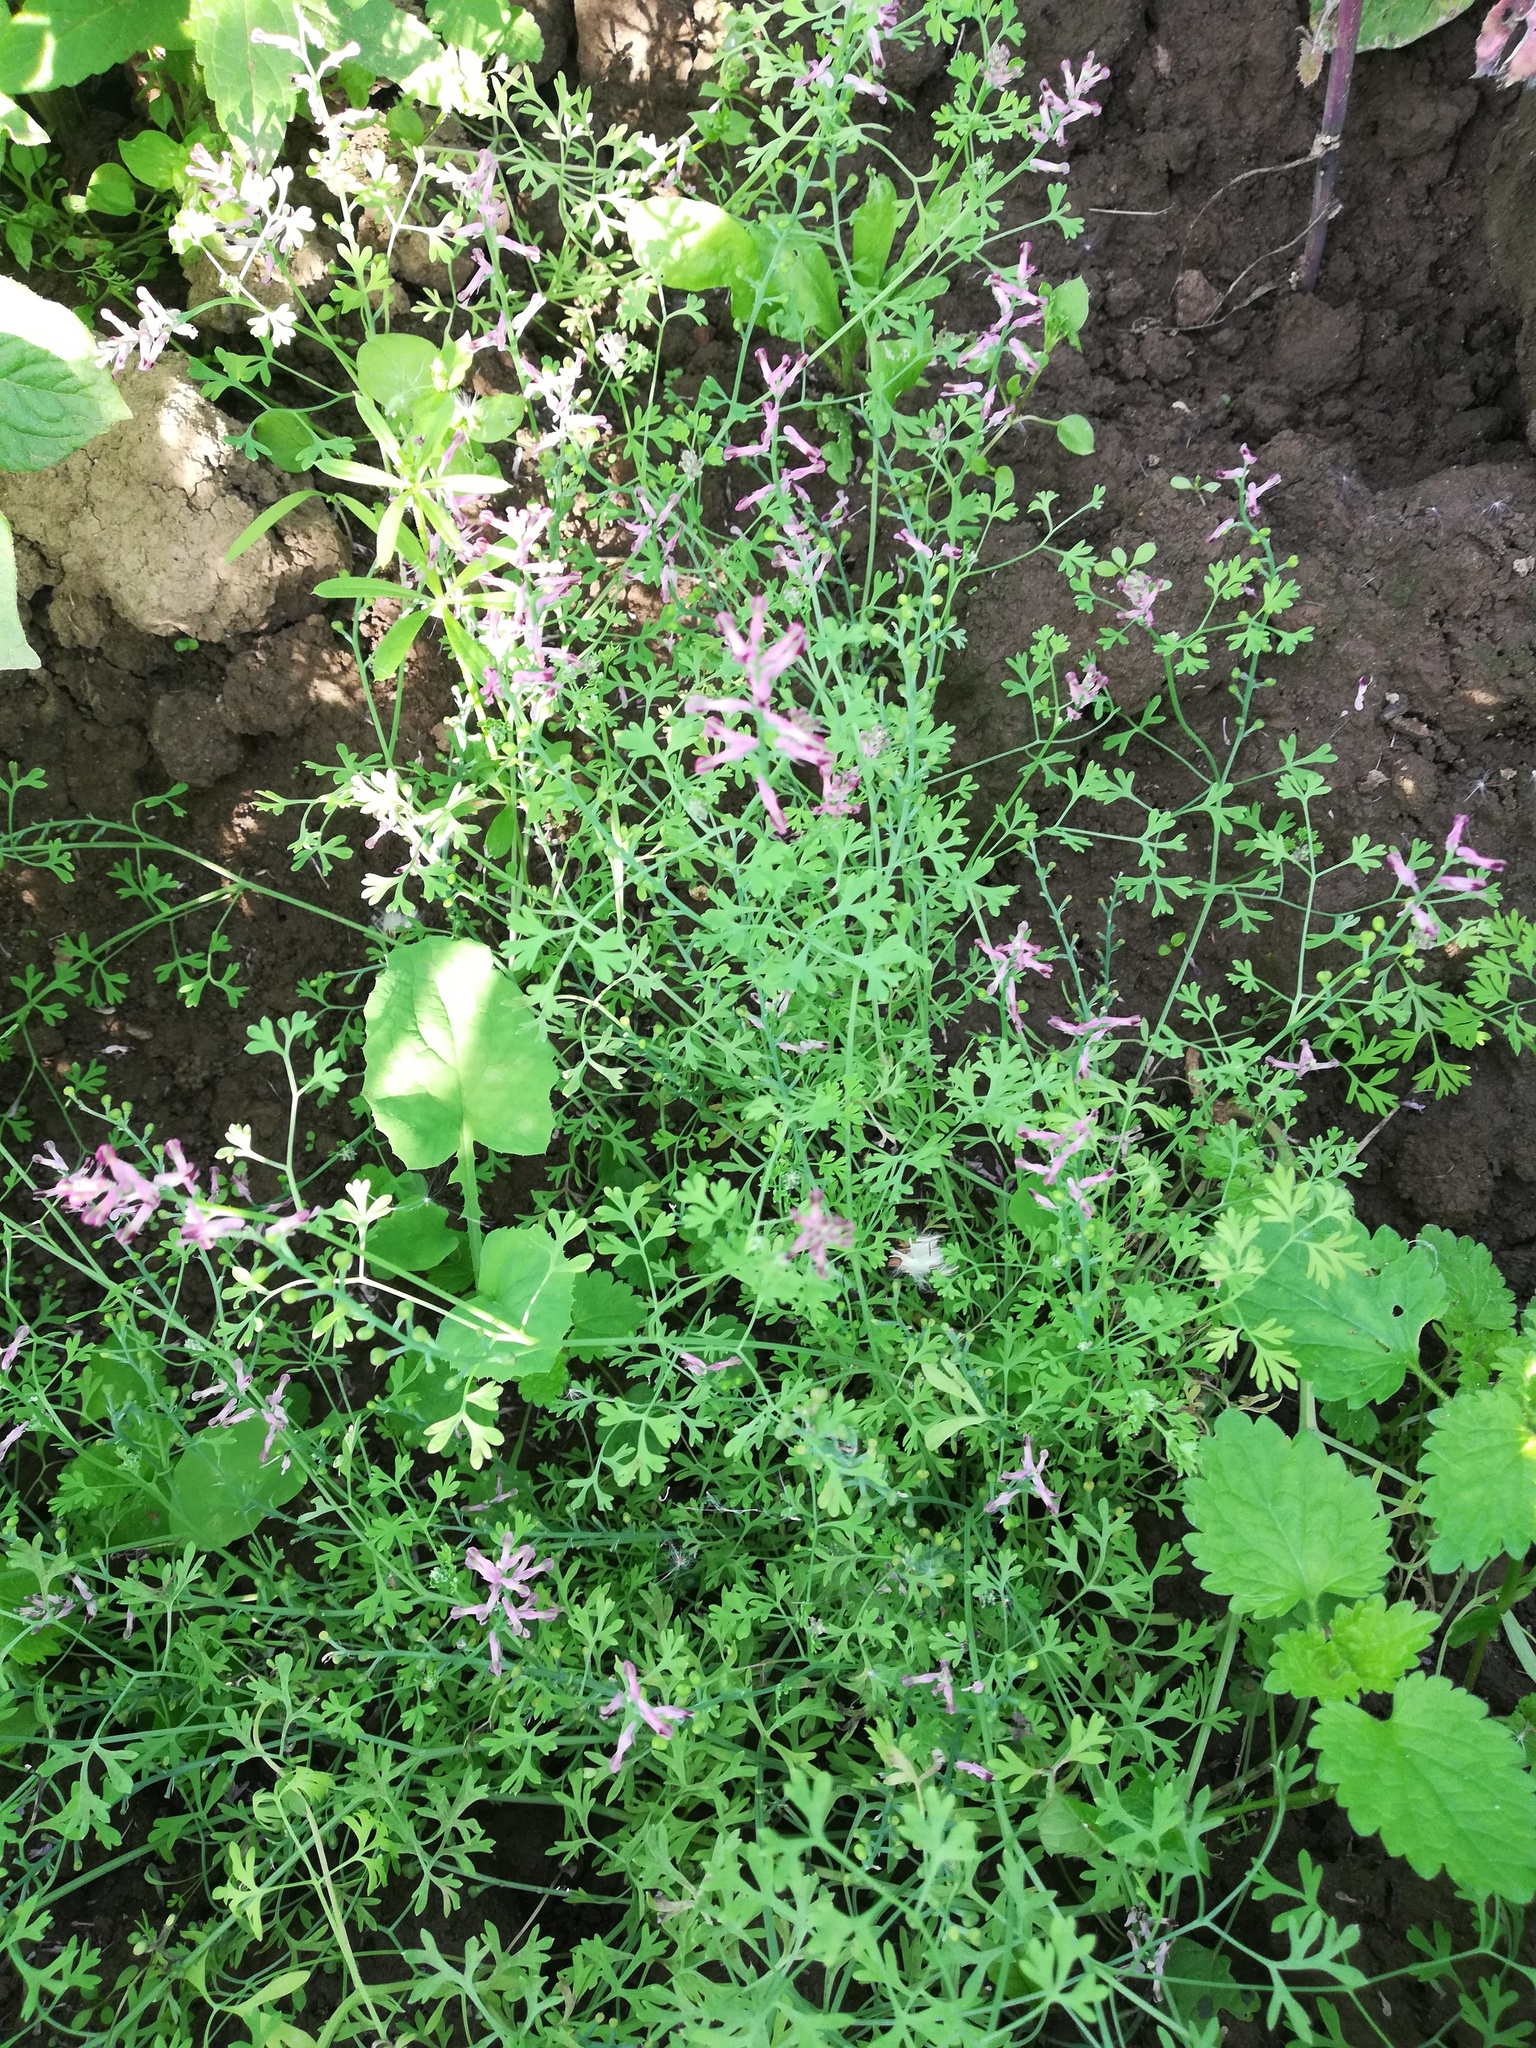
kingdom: Plantae
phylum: Tracheophyta
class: Magnoliopsida
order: Ranunculales
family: Papaveraceae
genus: Fumaria
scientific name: Fumaria officinalis
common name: Common fumitory
